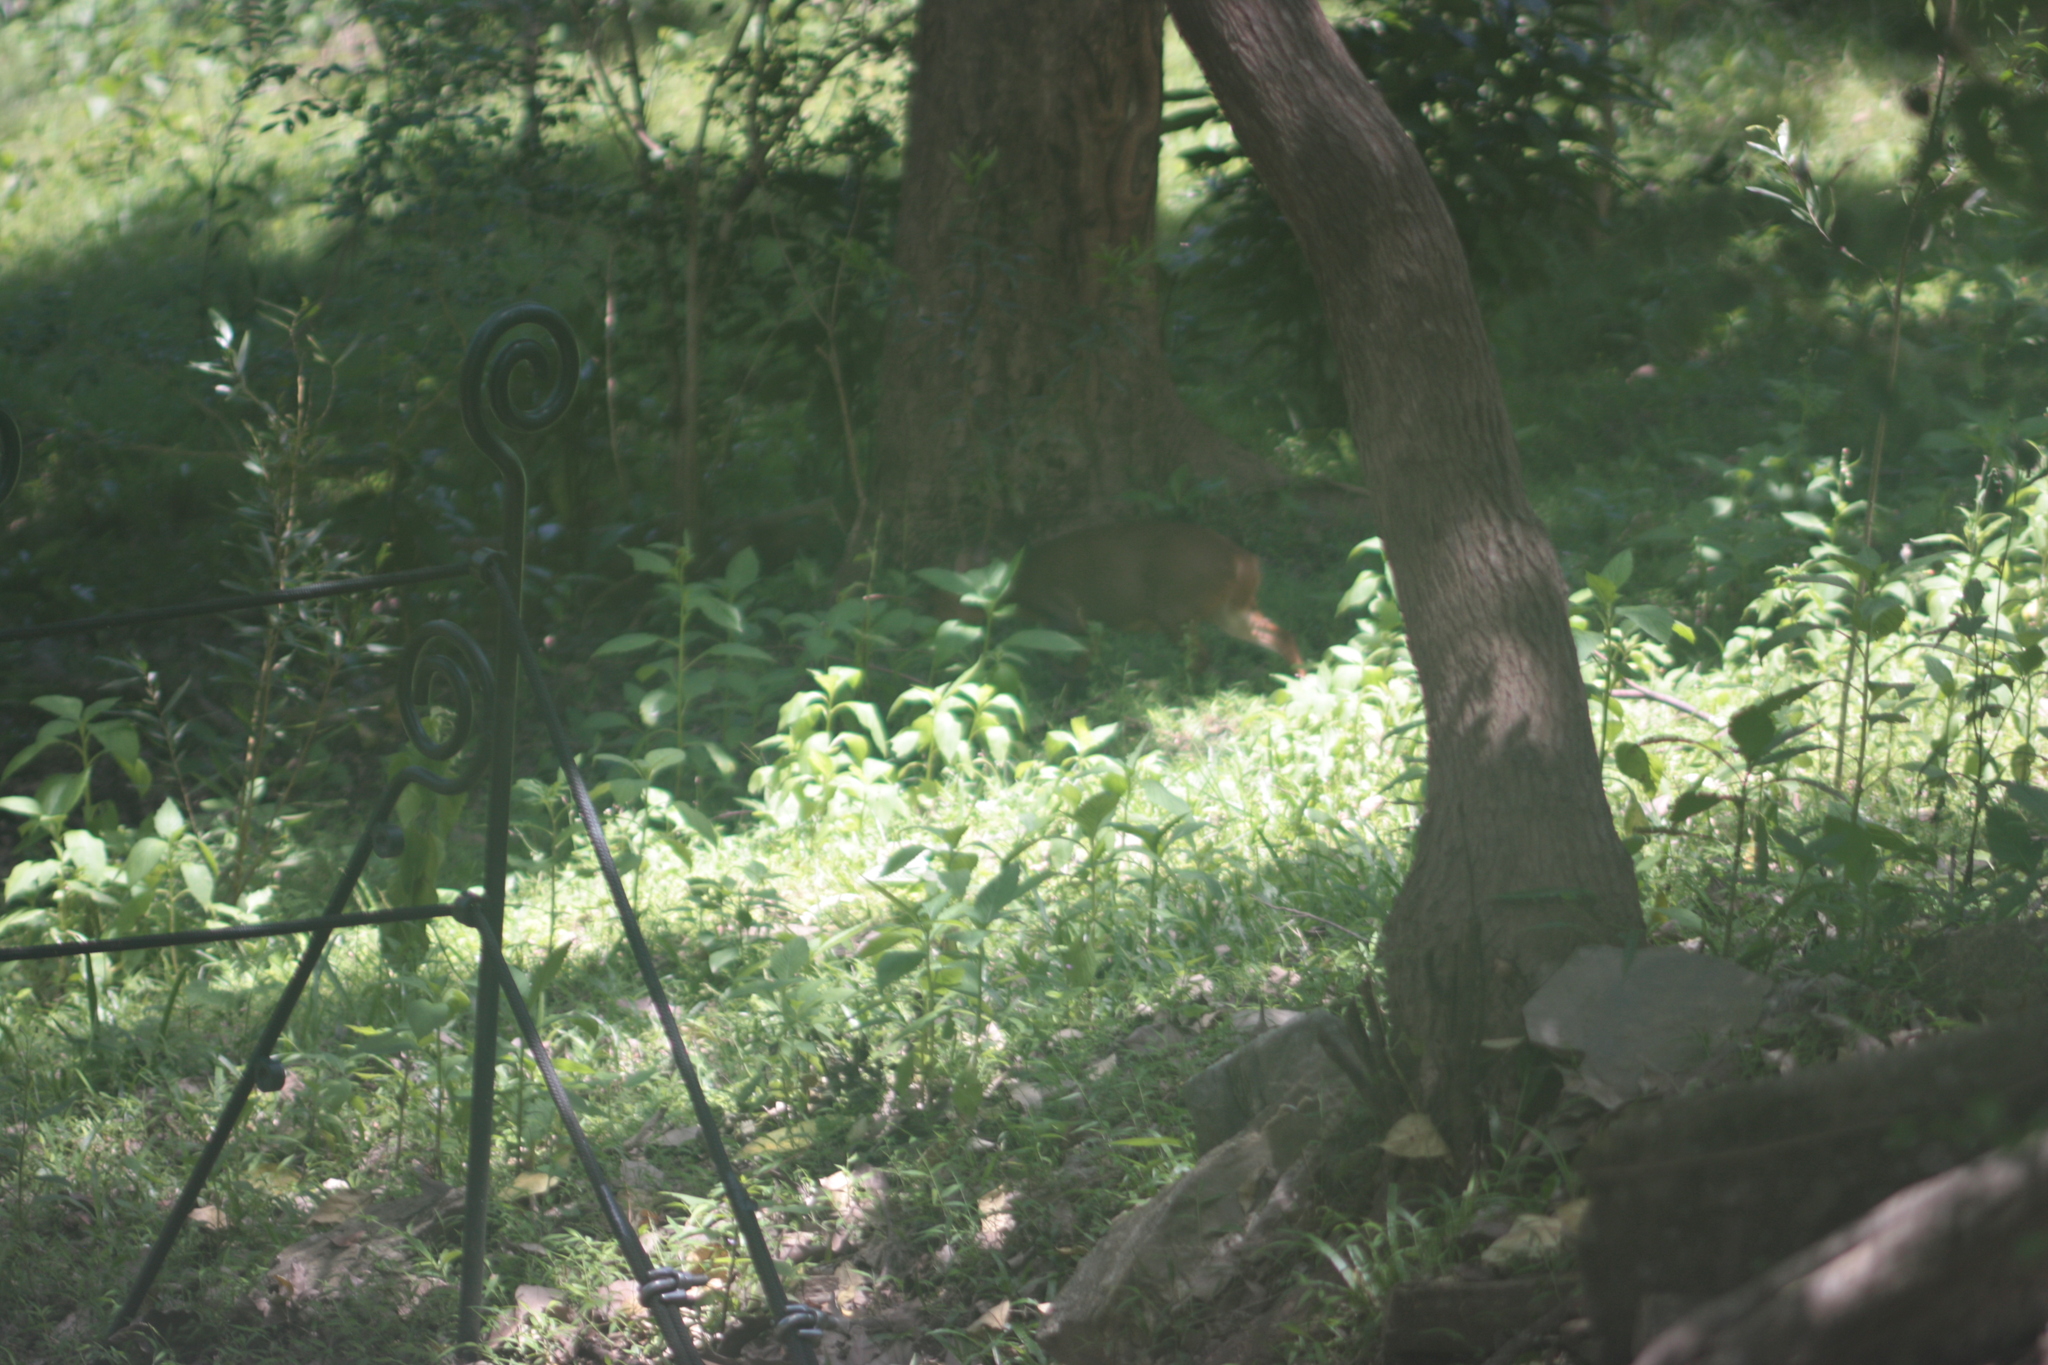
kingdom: Animalia
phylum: Chordata
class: Mammalia
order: Artiodactyla
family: Cervidae
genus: Muntiacus
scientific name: Muntiacus reevesi
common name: Reeves' muntjac
